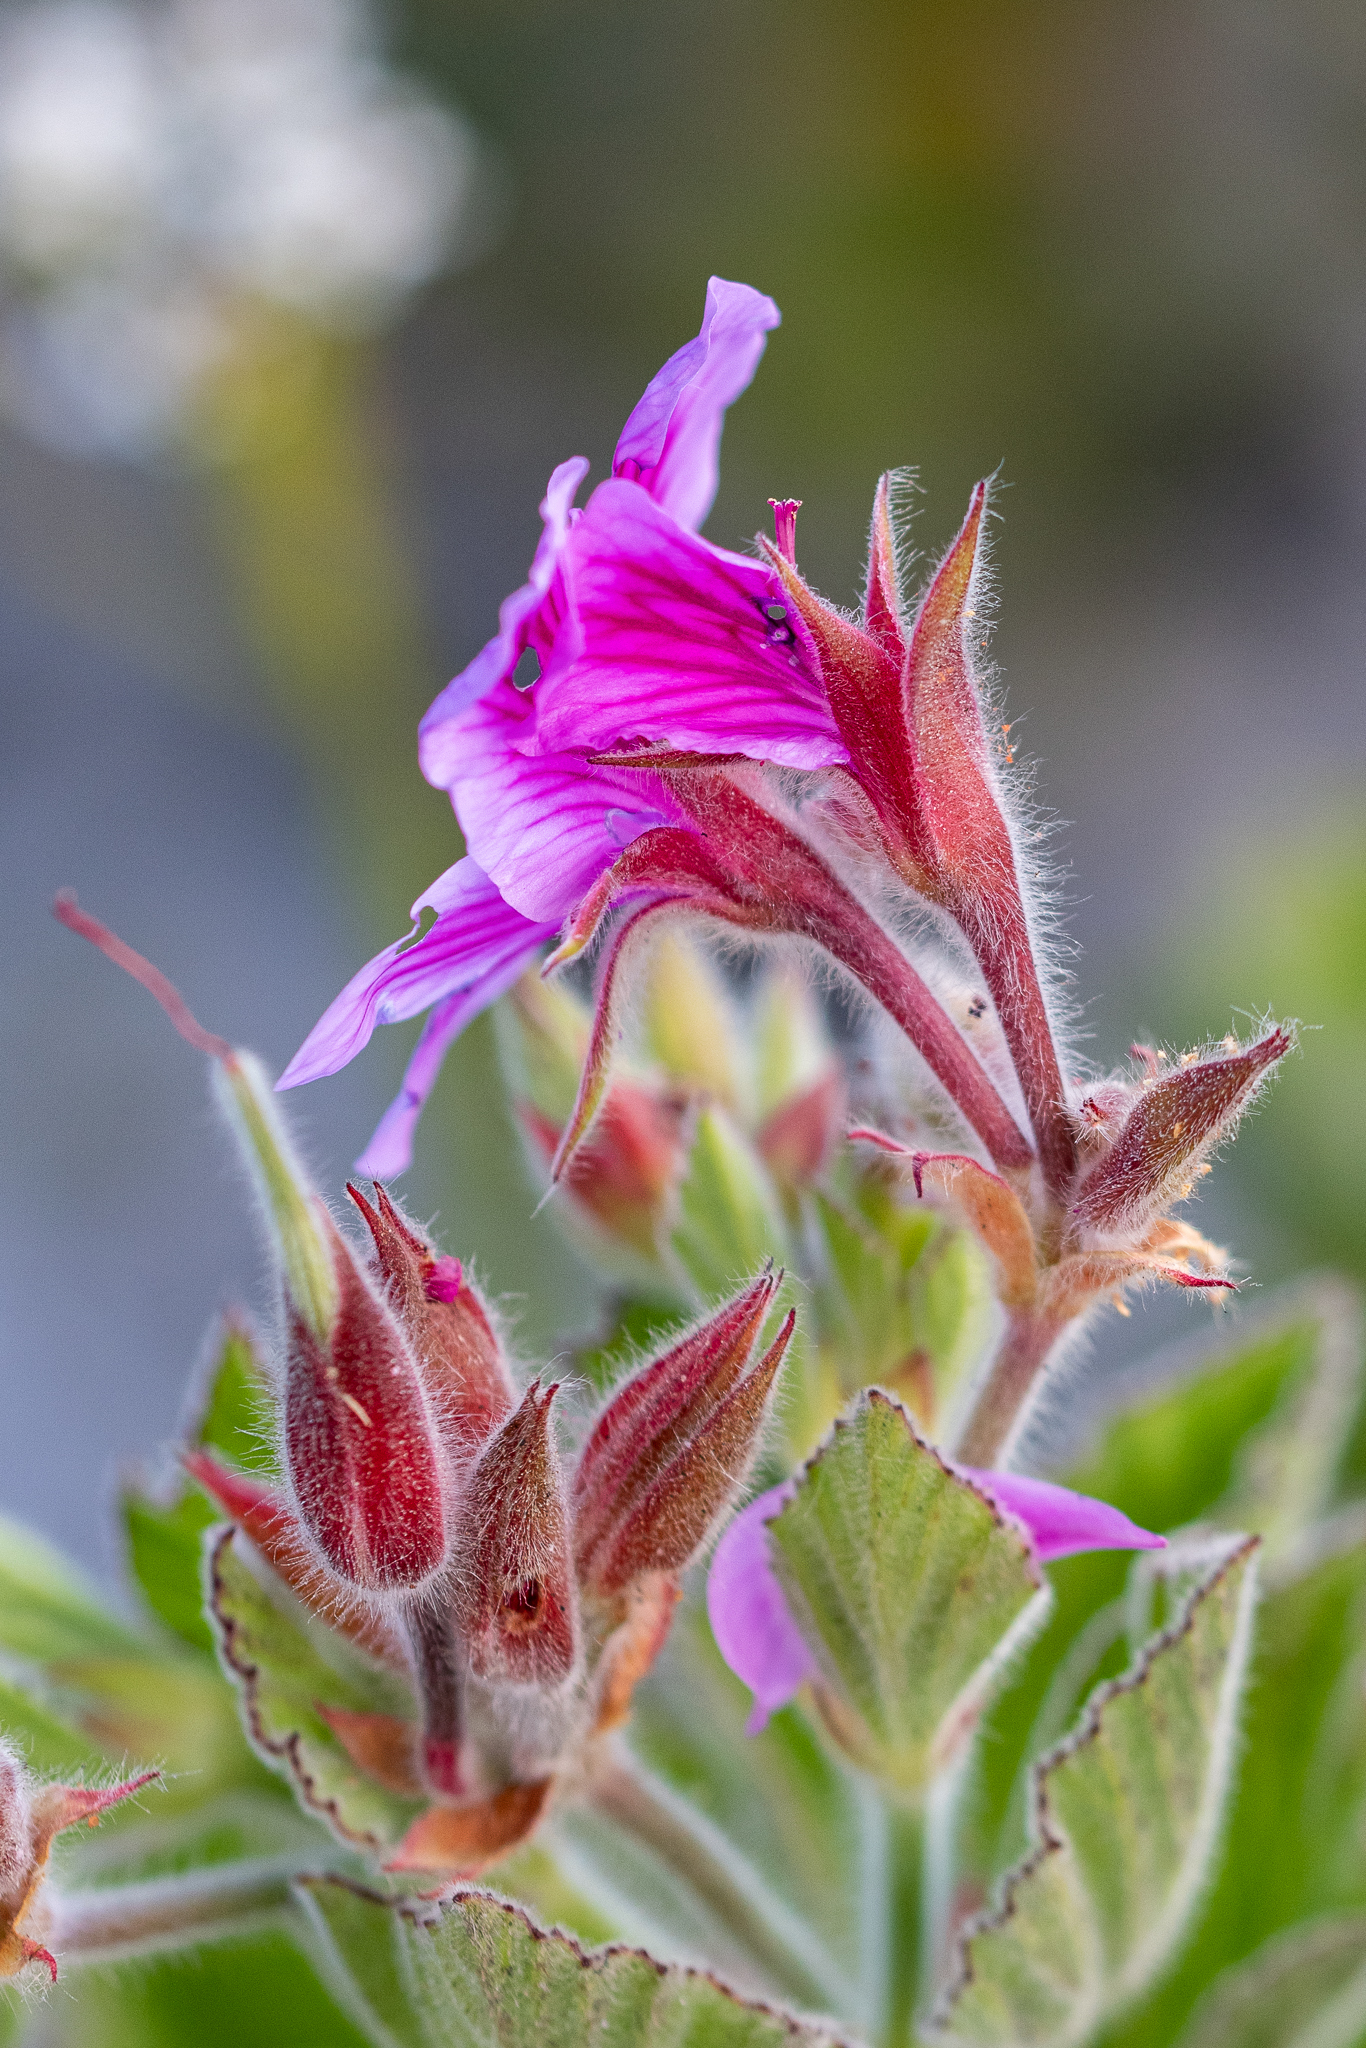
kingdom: Plantae
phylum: Tracheophyta
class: Magnoliopsida
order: Geraniales
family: Geraniaceae
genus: Pelargonium
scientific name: Pelargonium cucullatum
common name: Tree pelargonium
